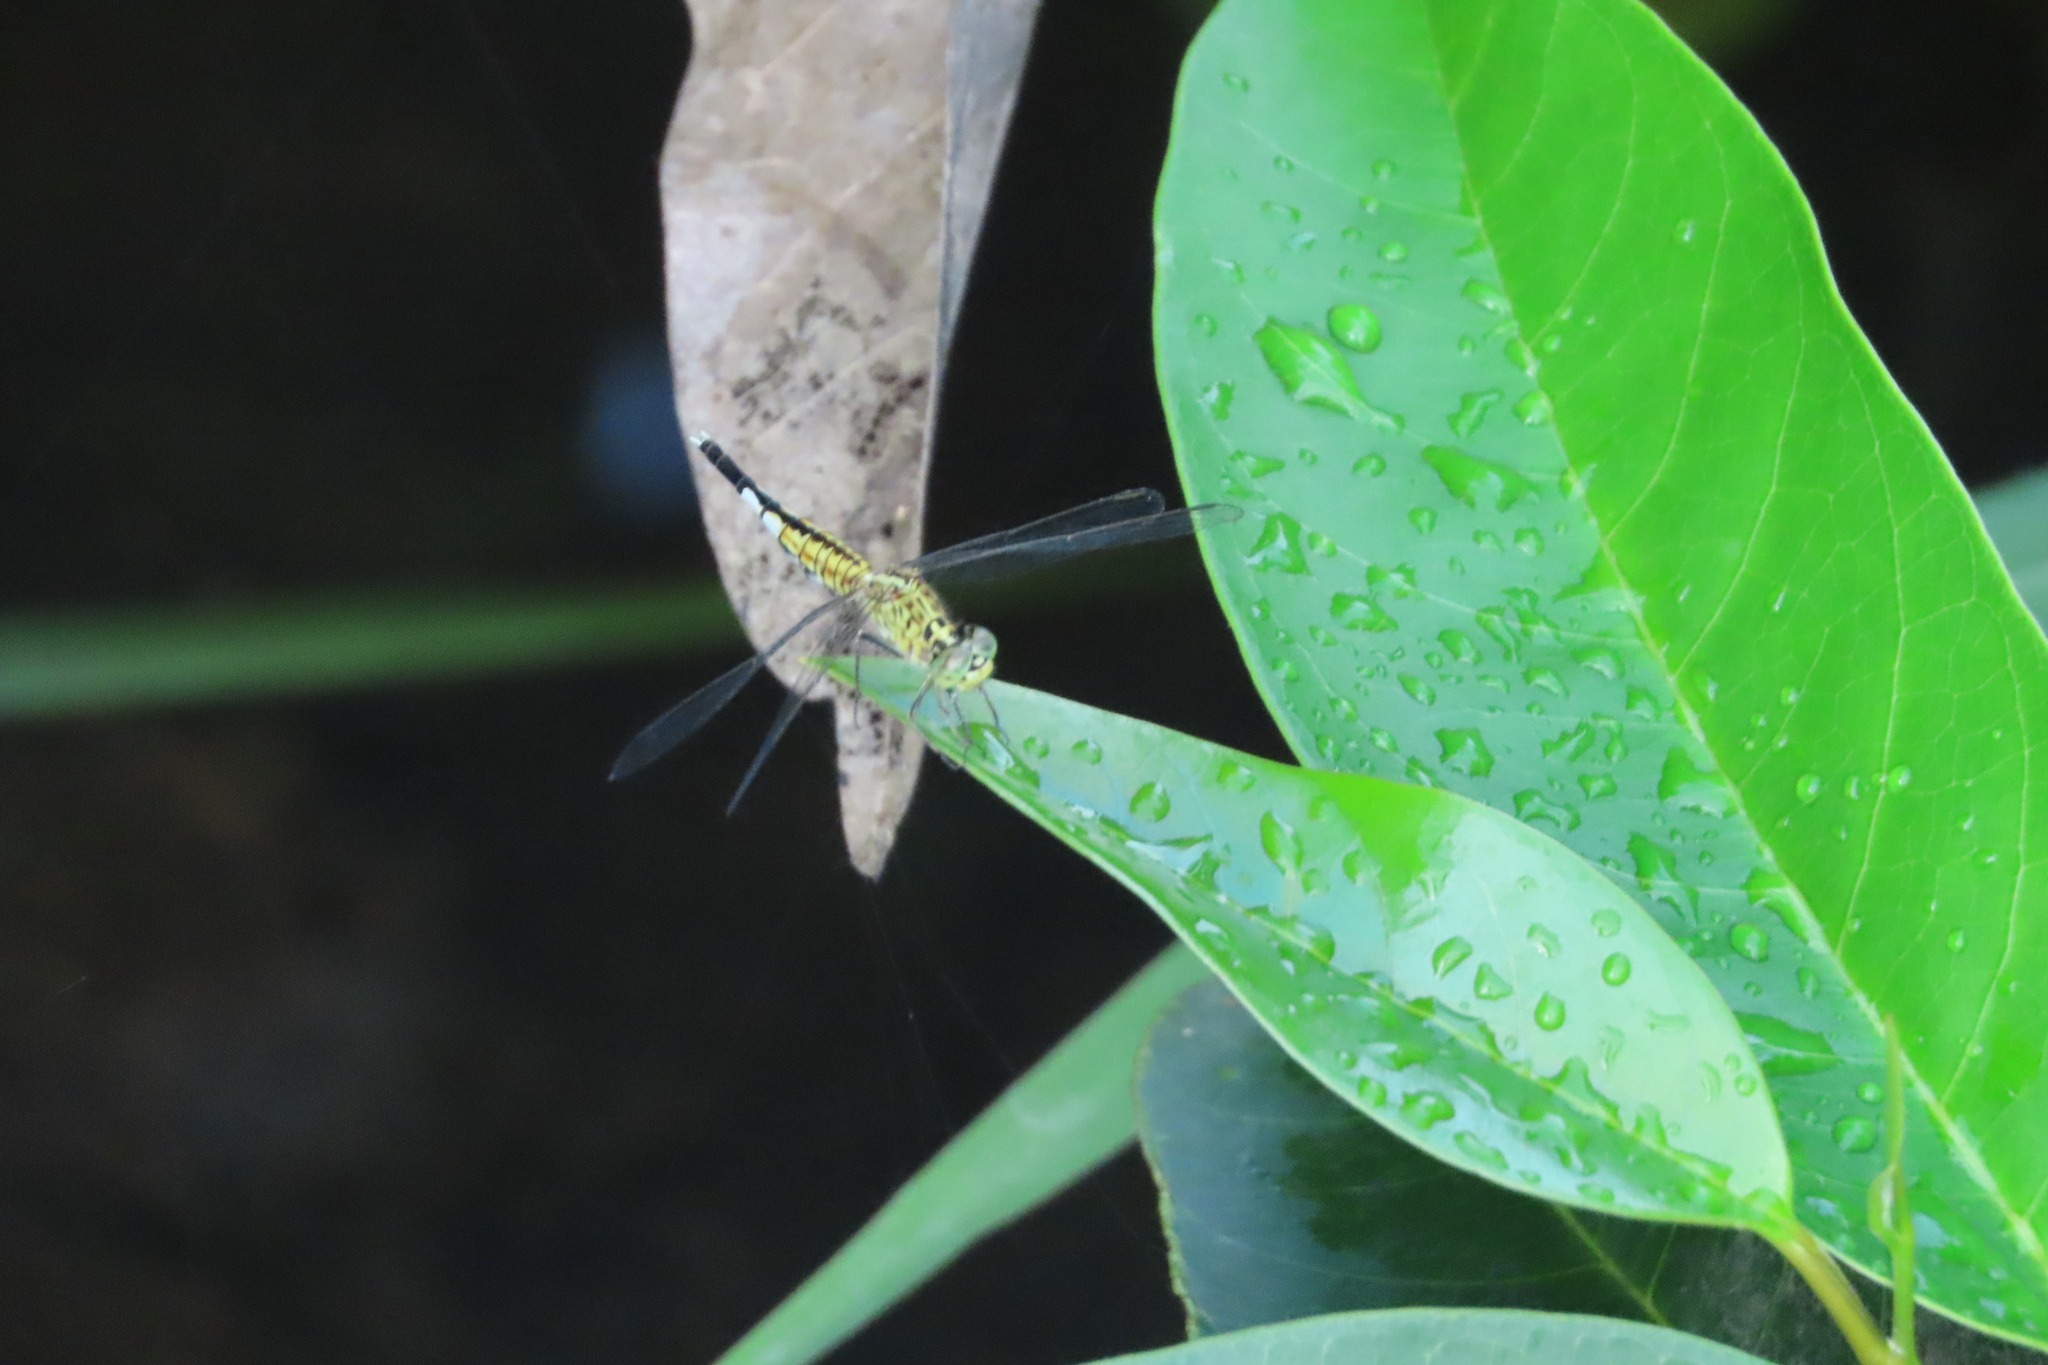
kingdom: Animalia
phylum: Arthropoda
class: Insecta
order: Odonata
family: Libellulidae
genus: Acisoma
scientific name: Acisoma panorpoides
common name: Asian pintail
